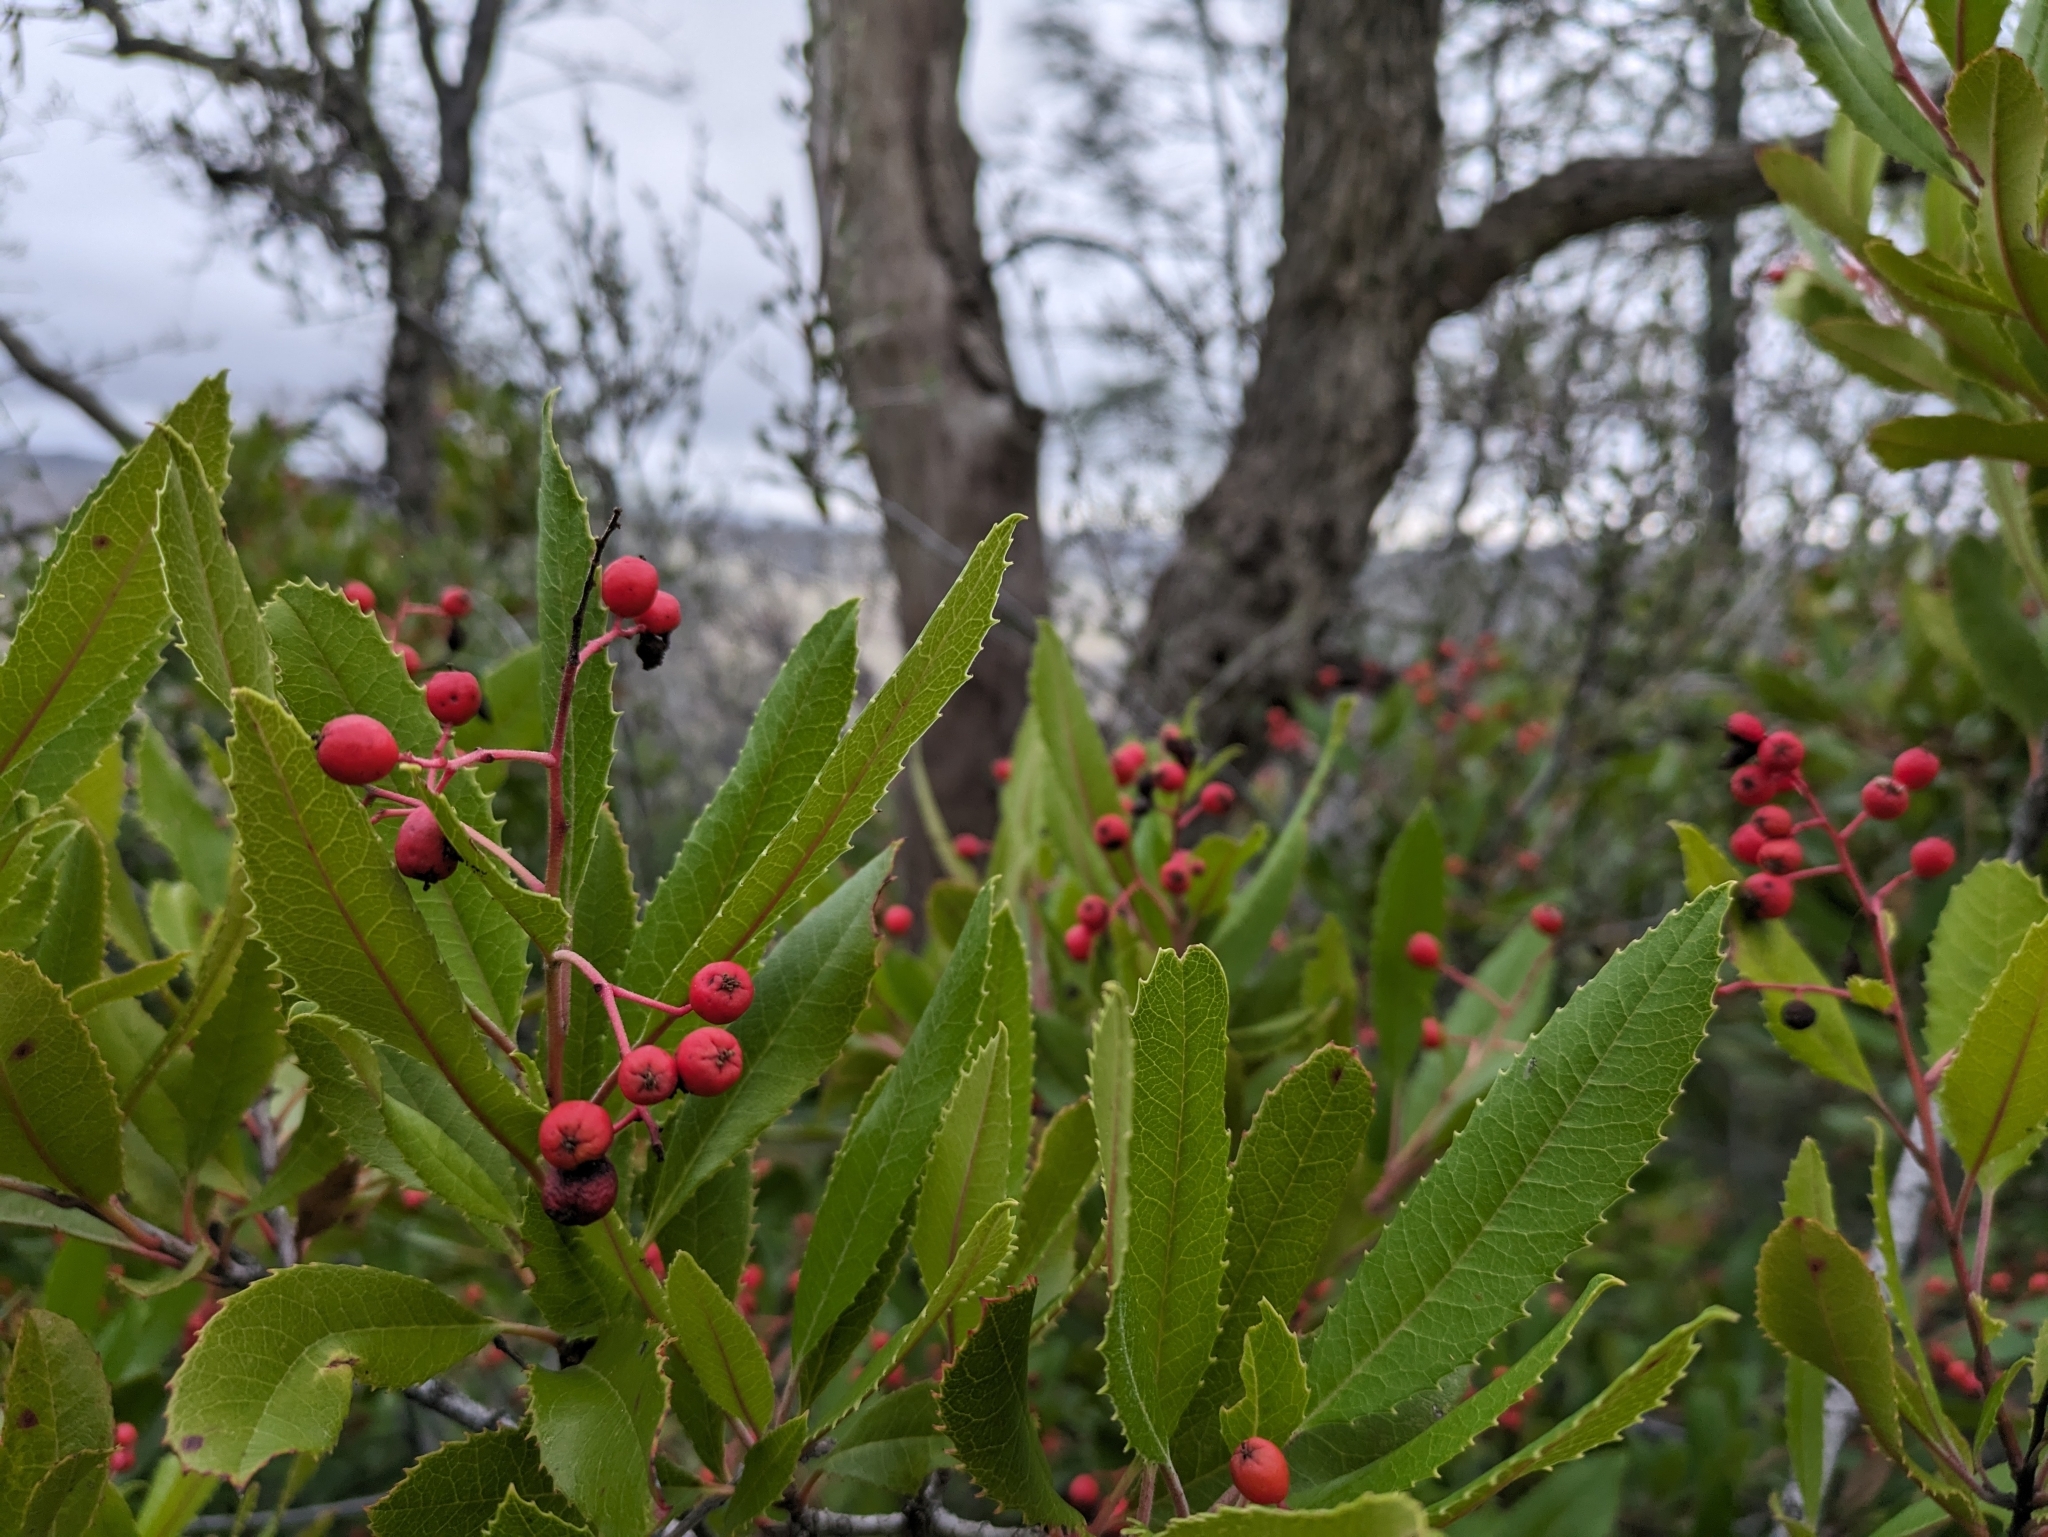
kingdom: Plantae
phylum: Tracheophyta
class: Magnoliopsida
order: Rosales
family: Rosaceae
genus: Heteromeles
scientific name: Heteromeles arbutifolia
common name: California-holly
